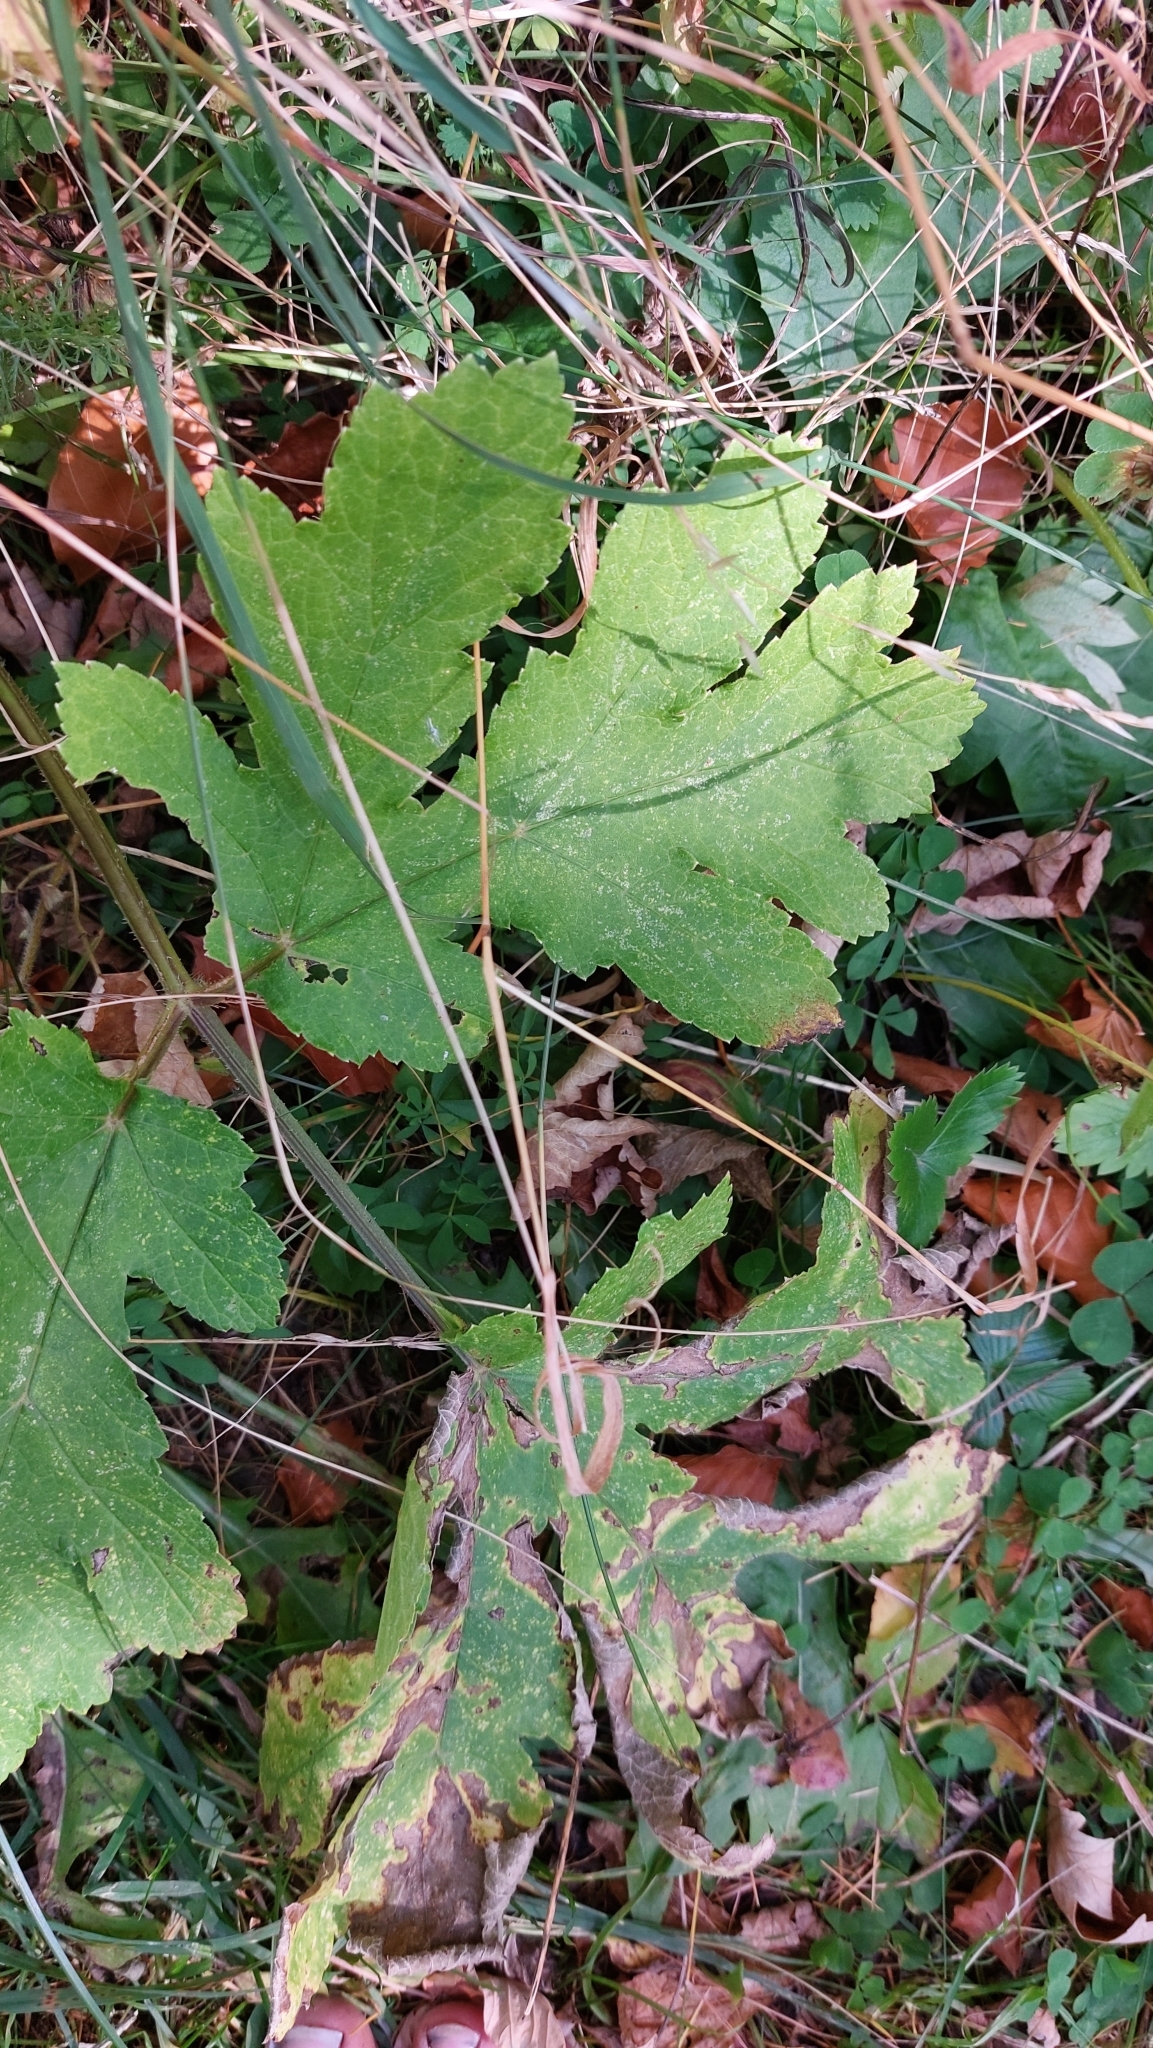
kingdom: Plantae
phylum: Tracheophyta
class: Magnoliopsida
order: Apiales
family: Apiaceae
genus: Heracleum
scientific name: Heracleum sphondylium
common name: Hogweed
